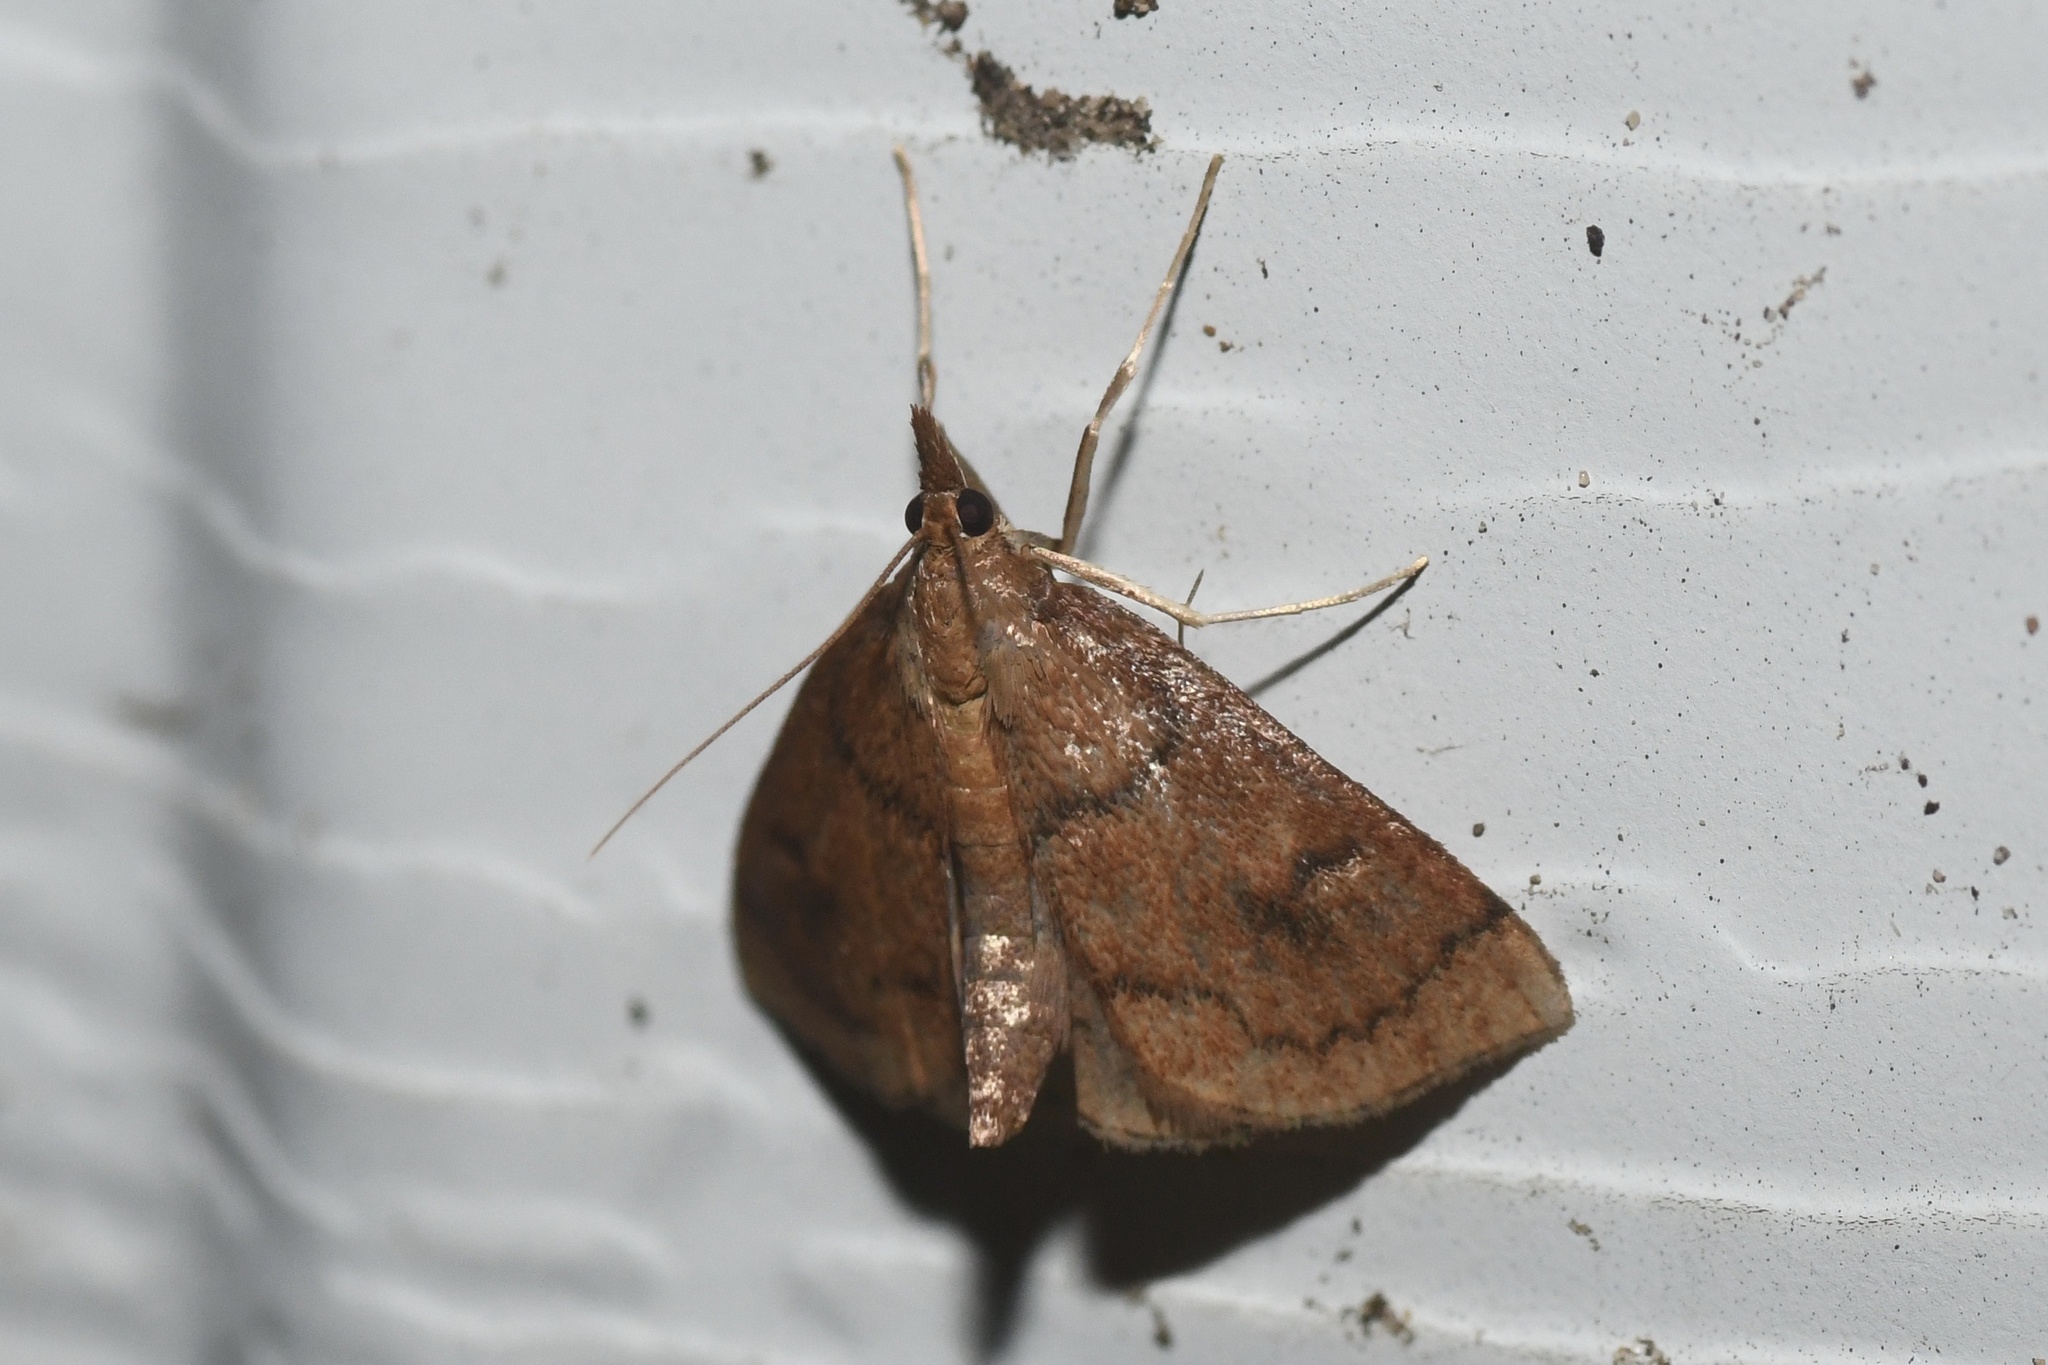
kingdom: Animalia
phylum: Arthropoda
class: Insecta
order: Lepidoptera
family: Crambidae
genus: Fumibotys
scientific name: Fumibotys fumalis
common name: Mint root borer moth
